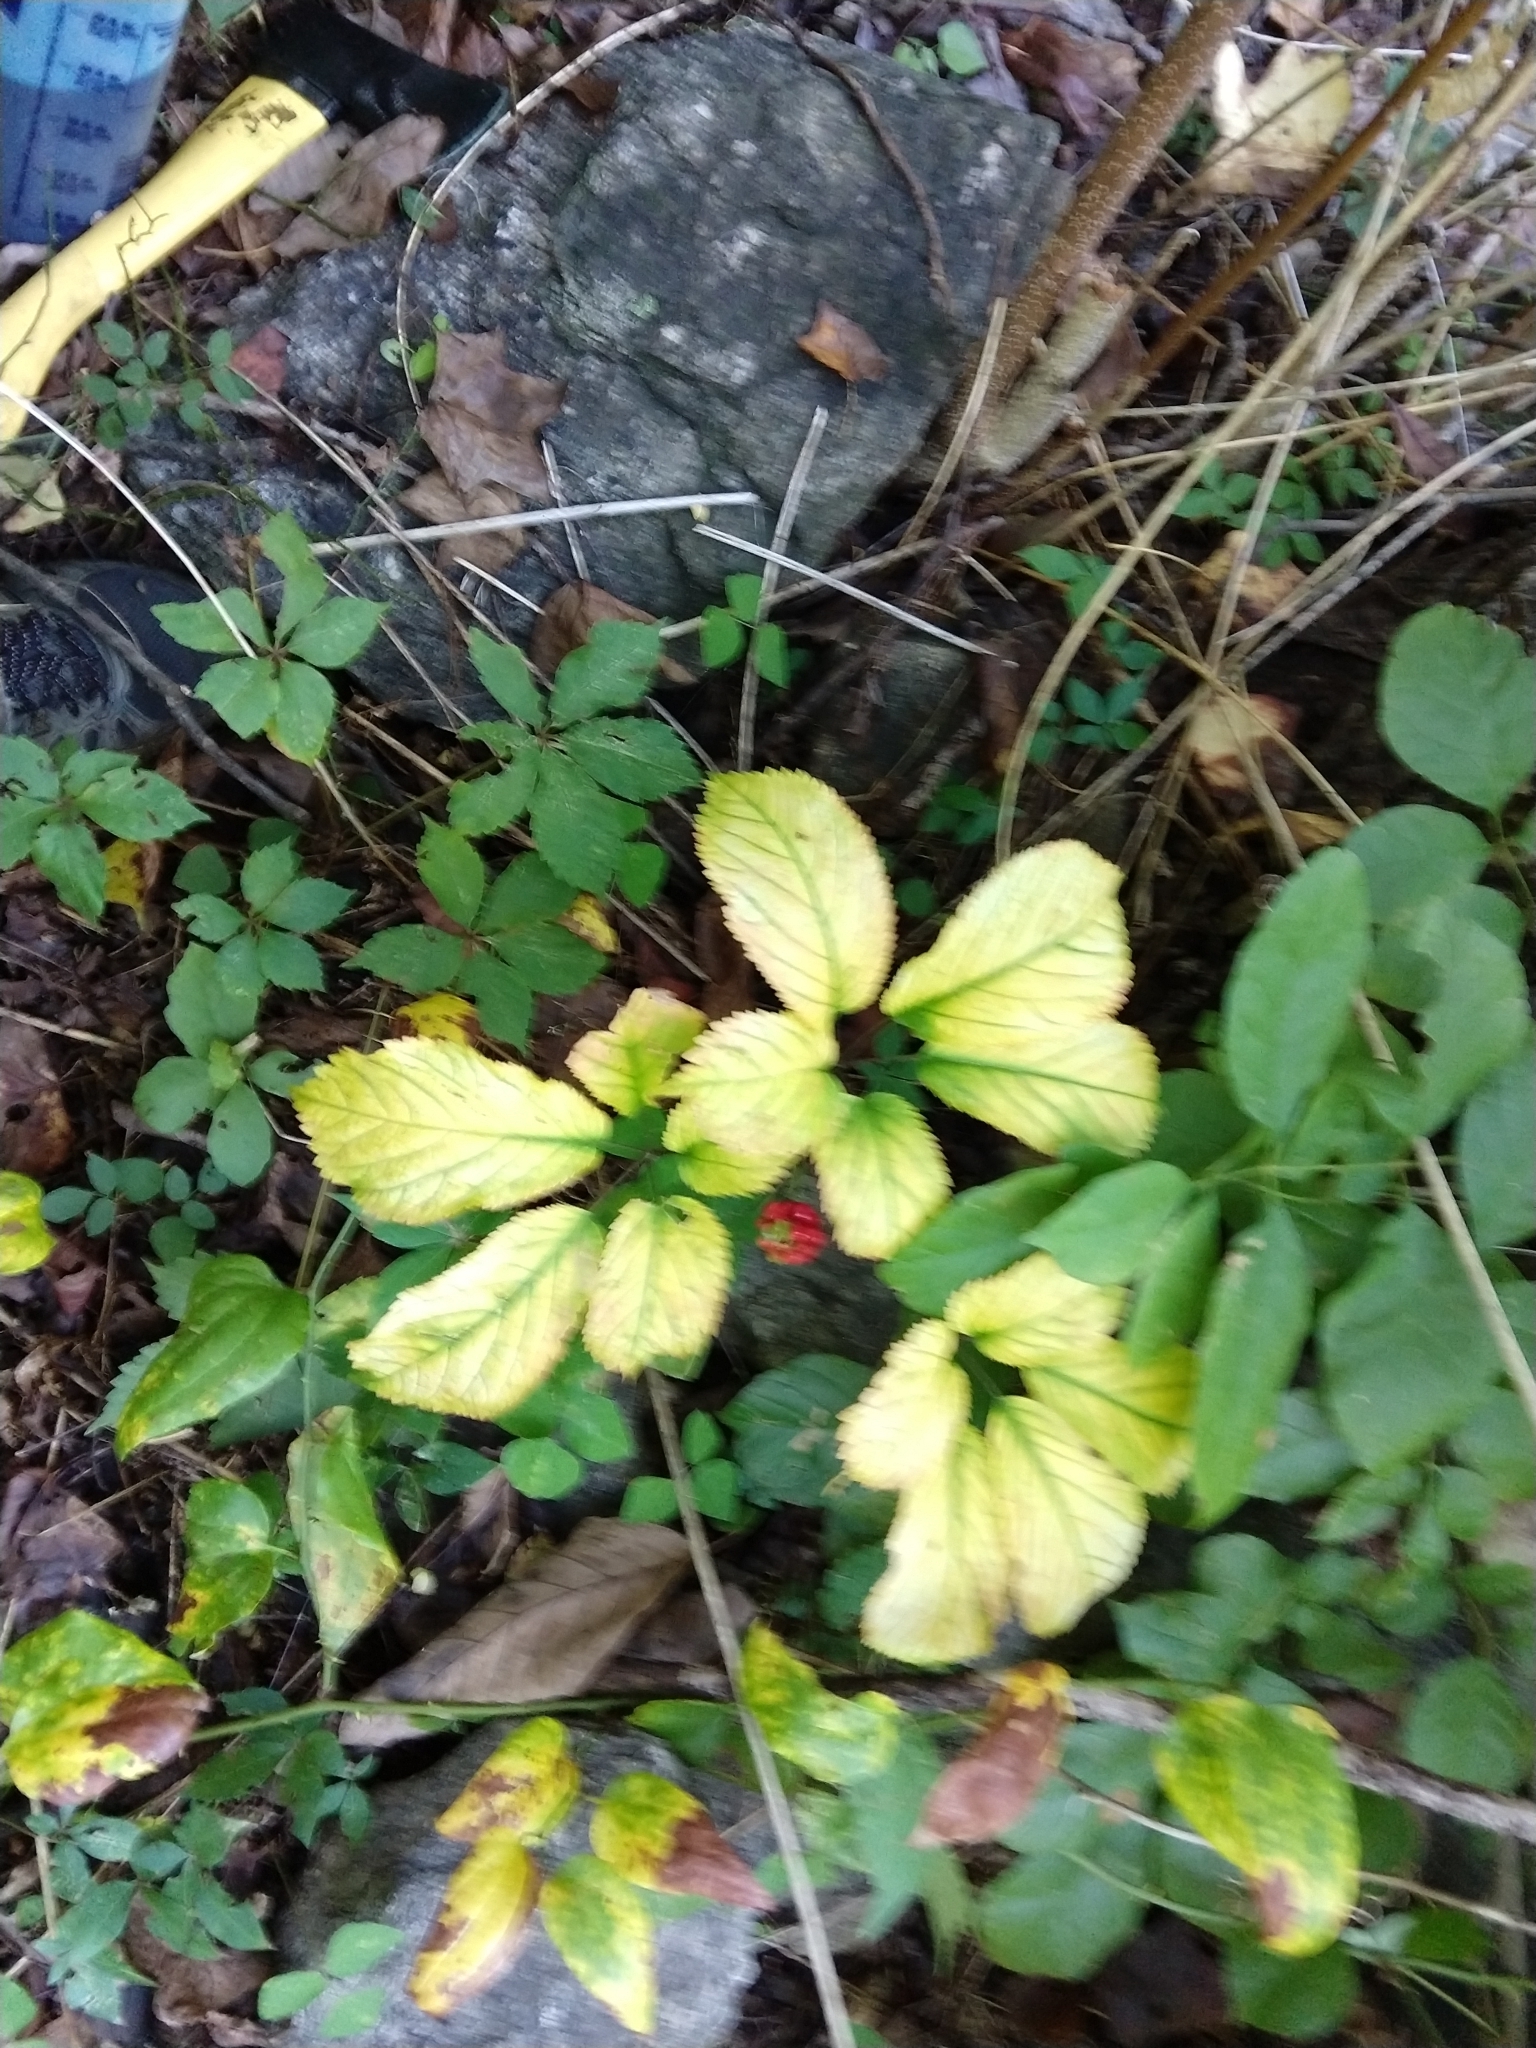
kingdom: Plantae
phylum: Tracheophyta
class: Magnoliopsida
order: Apiales
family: Araliaceae
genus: Panax
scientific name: Panax quinquefolius
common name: American ginseng
